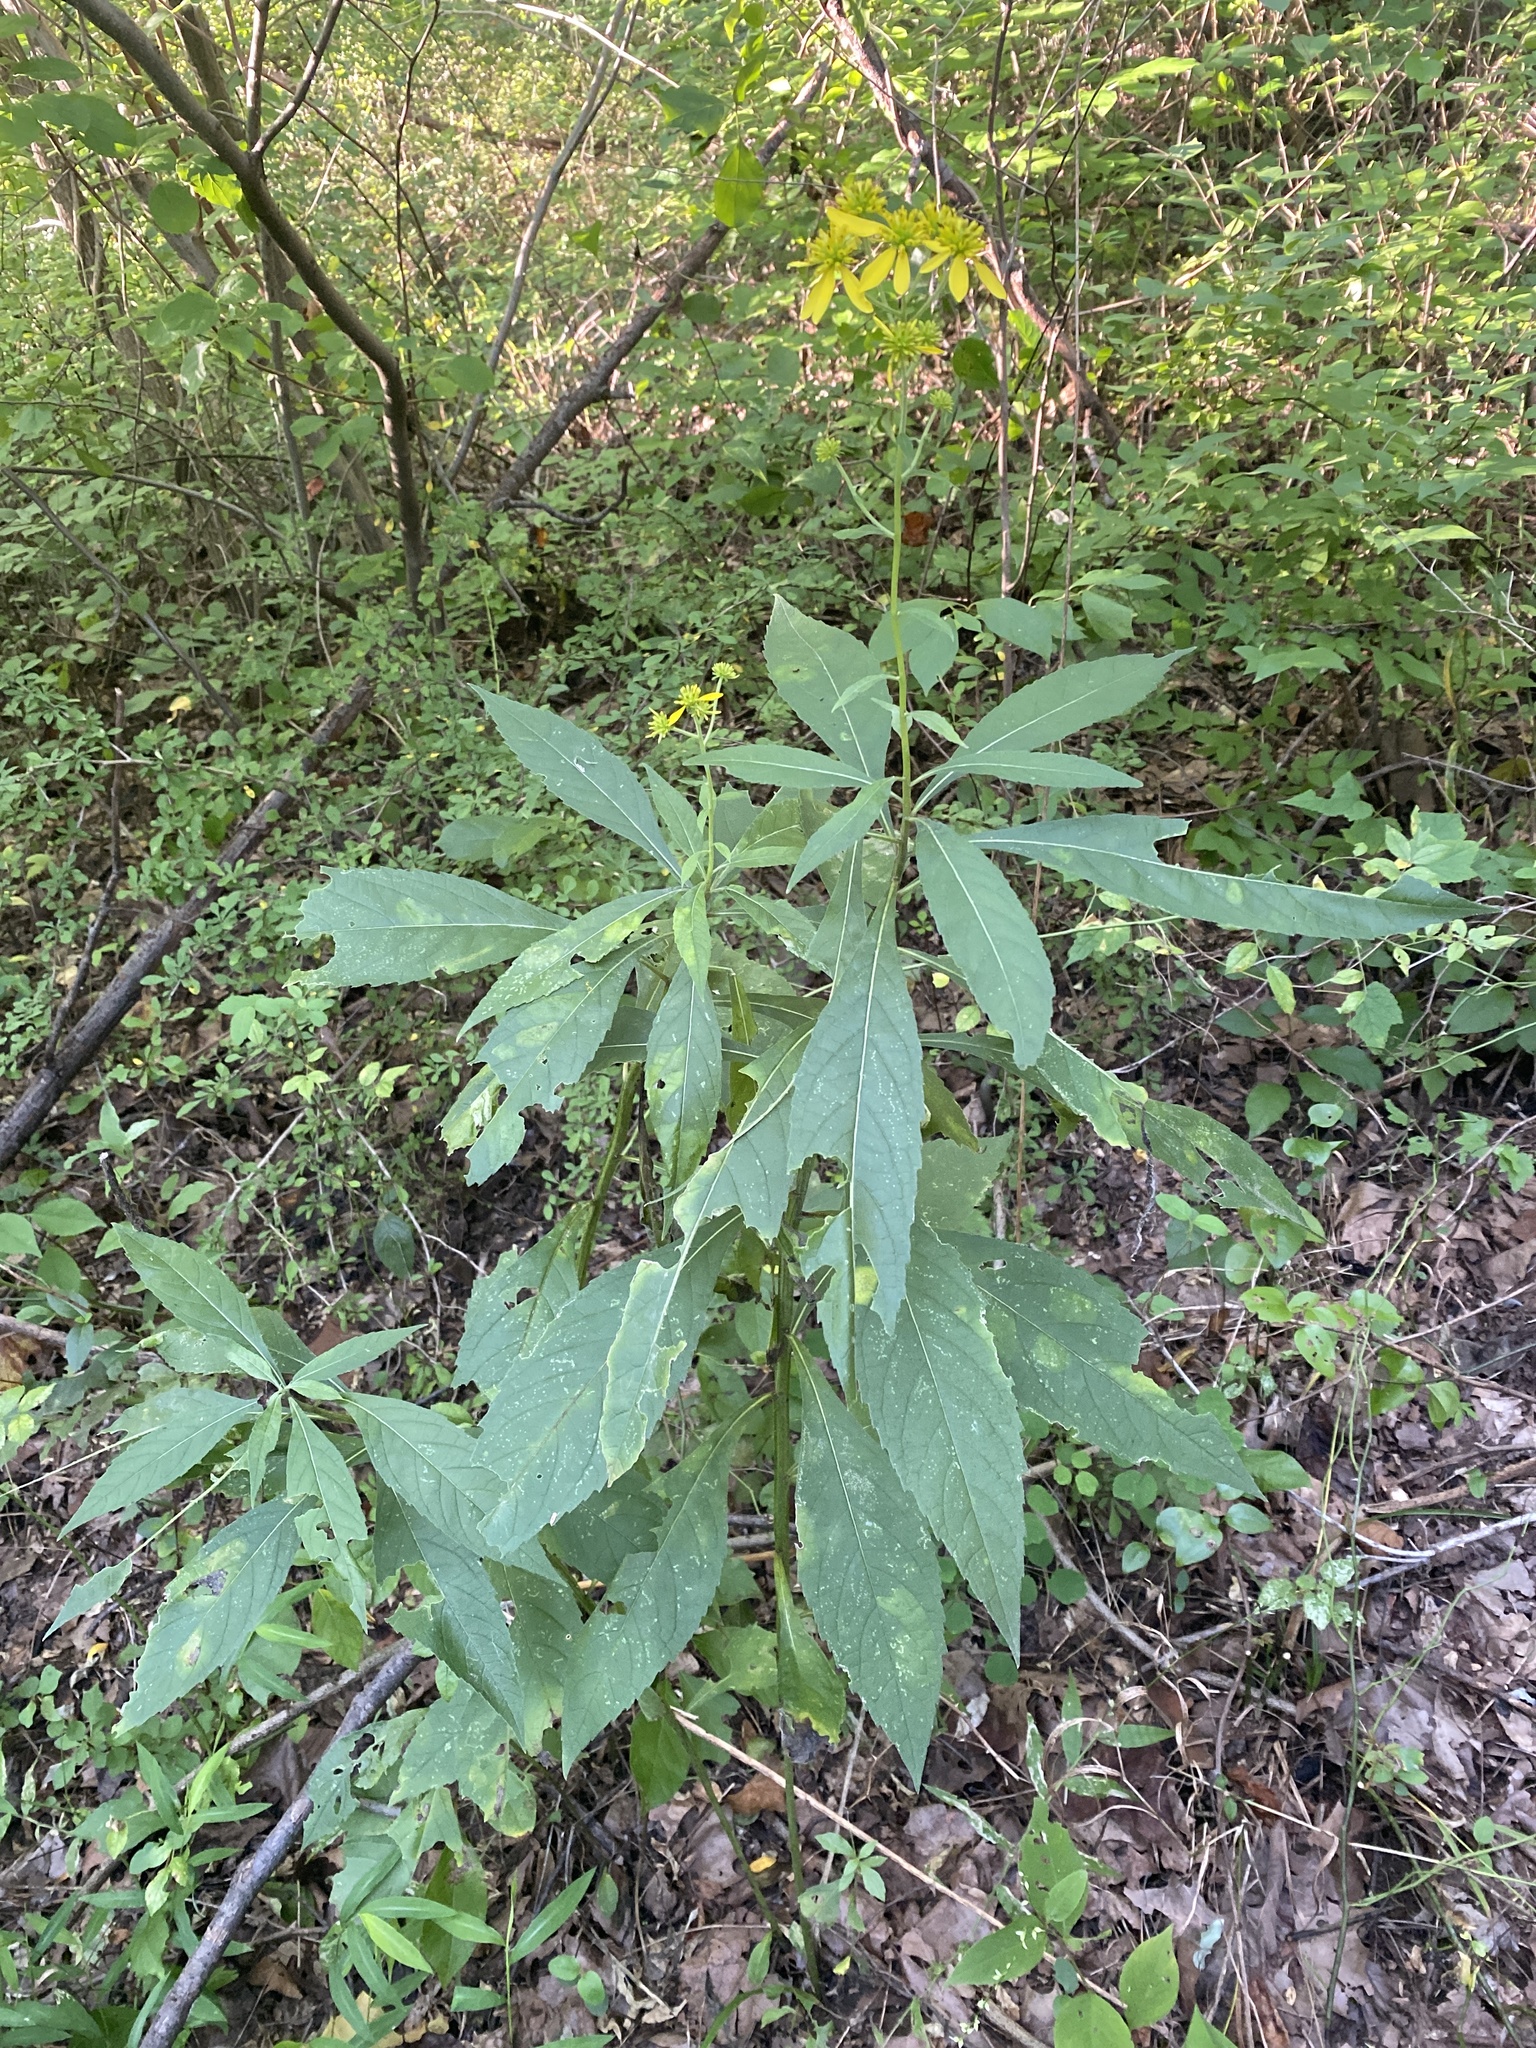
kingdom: Plantae
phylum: Tracheophyta
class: Magnoliopsida
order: Asterales
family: Asteraceae
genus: Verbesina
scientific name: Verbesina alternifolia
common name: Wingstem
